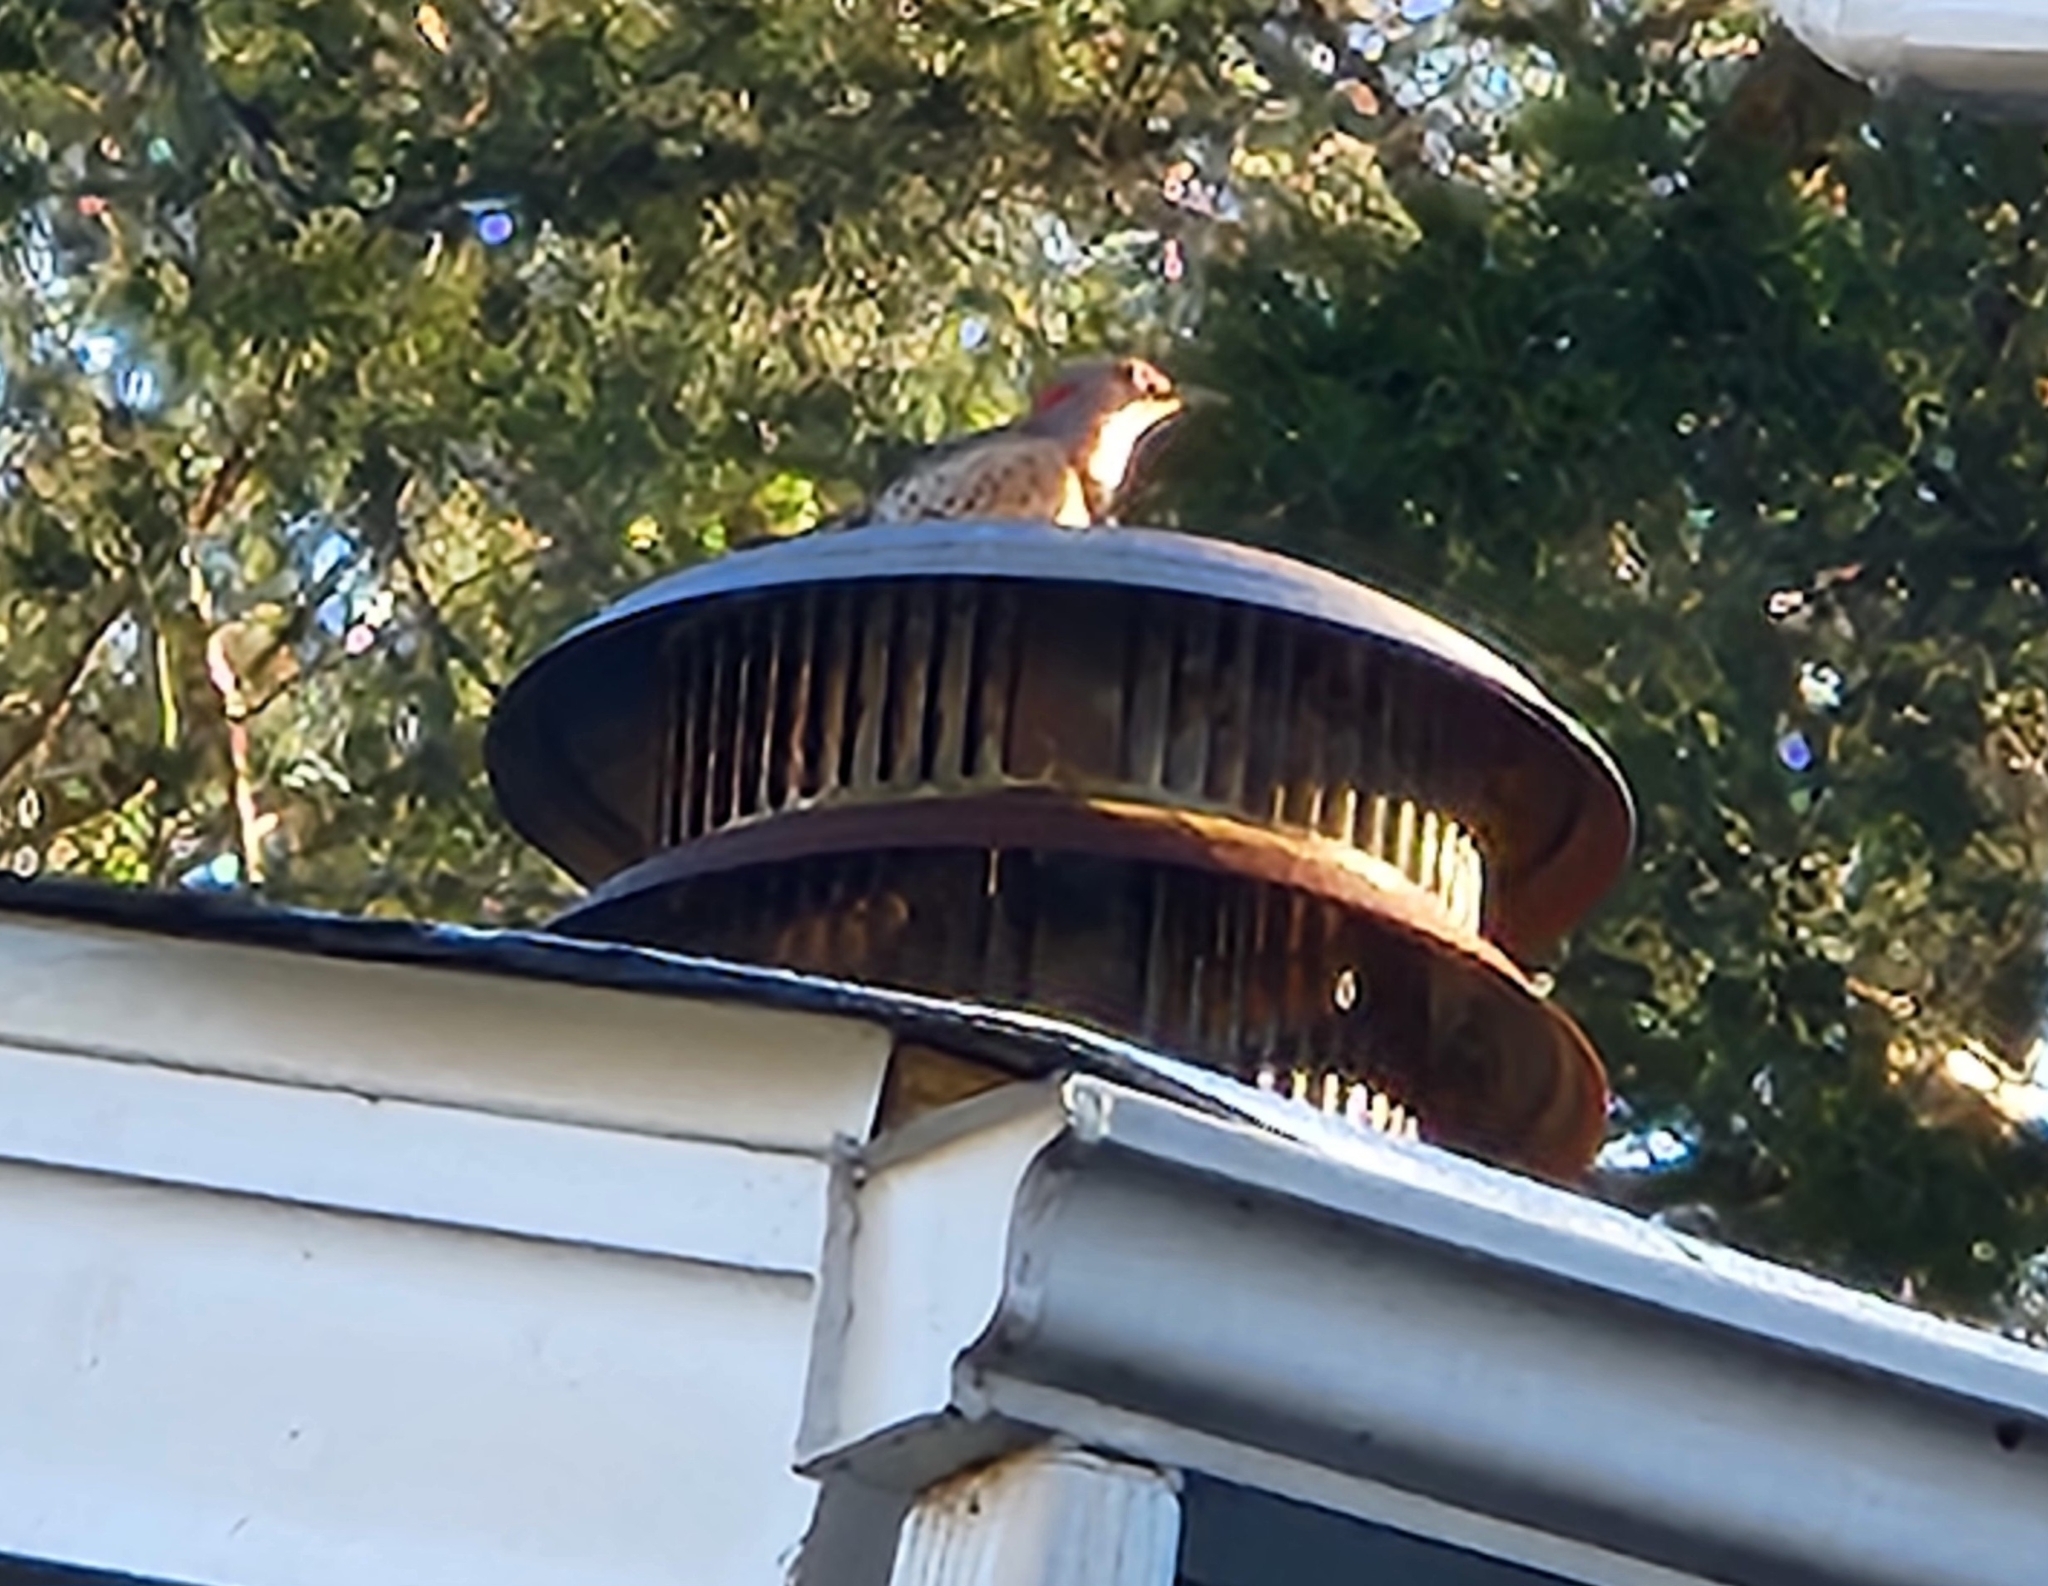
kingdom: Animalia
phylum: Chordata
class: Aves
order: Piciformes
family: Picidae
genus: Colaptes
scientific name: Colaptes auratus
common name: Northern flicker
